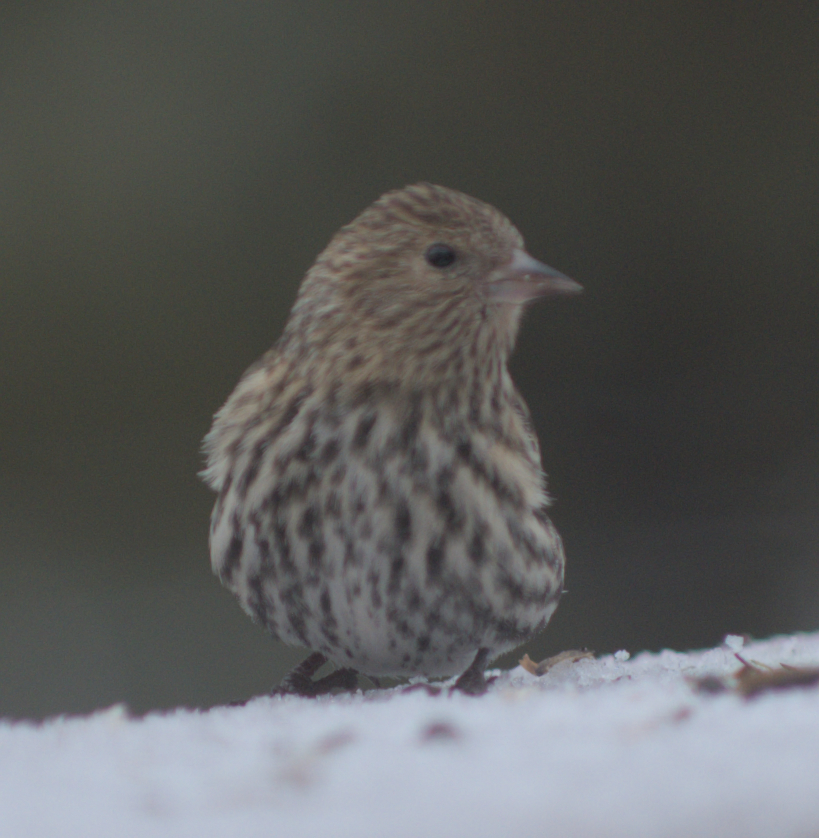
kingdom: Animalia
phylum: Chordata
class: Aves
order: Passeriformes
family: Fringillidae
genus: Spinus
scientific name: Spinus pinus
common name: Pine siskin
